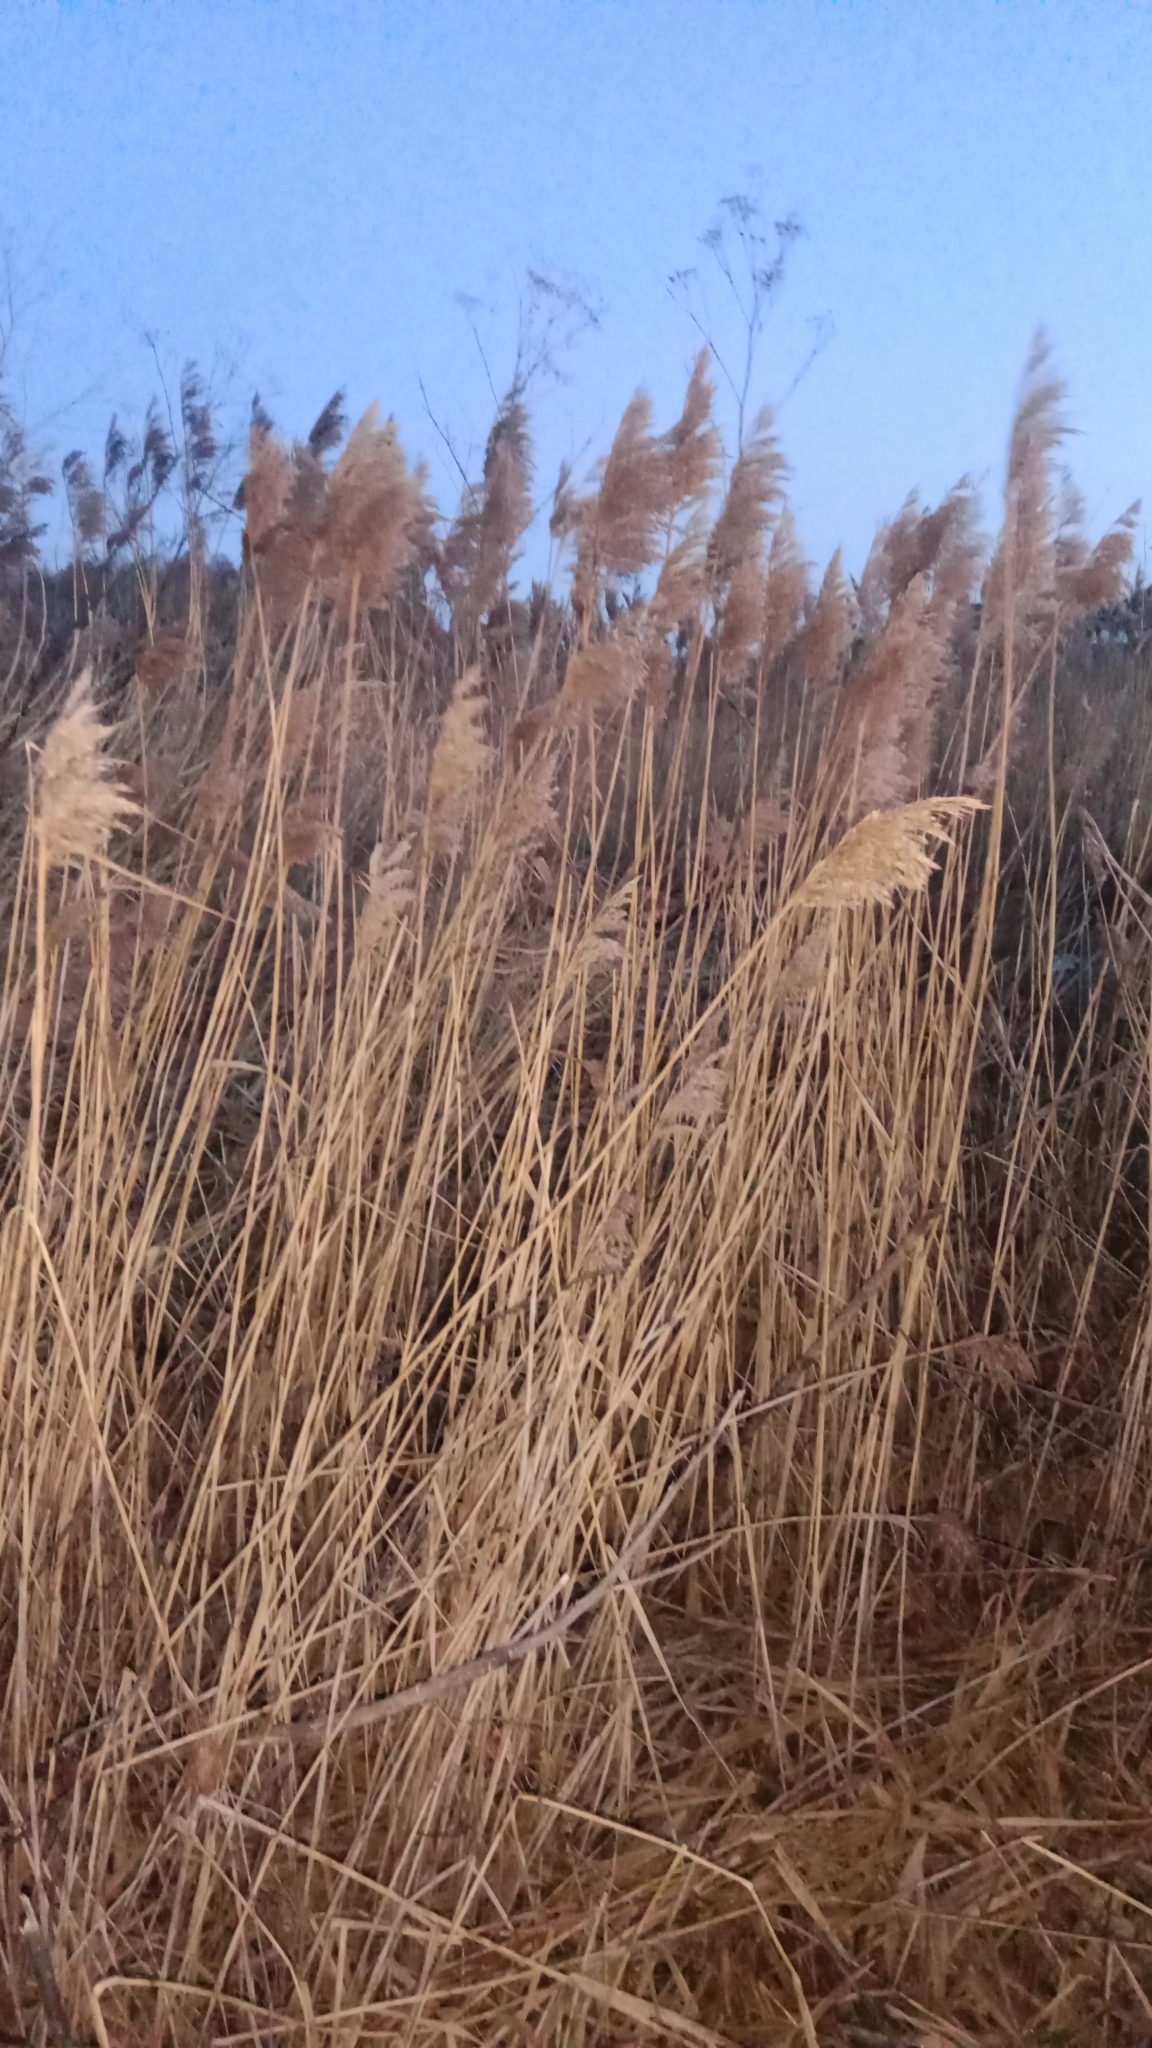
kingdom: Plantae
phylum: Tracheophyta
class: Liliopsida
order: Poales
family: Poaceae
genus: Phragmites
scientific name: Phragmites australis
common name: Common reed
